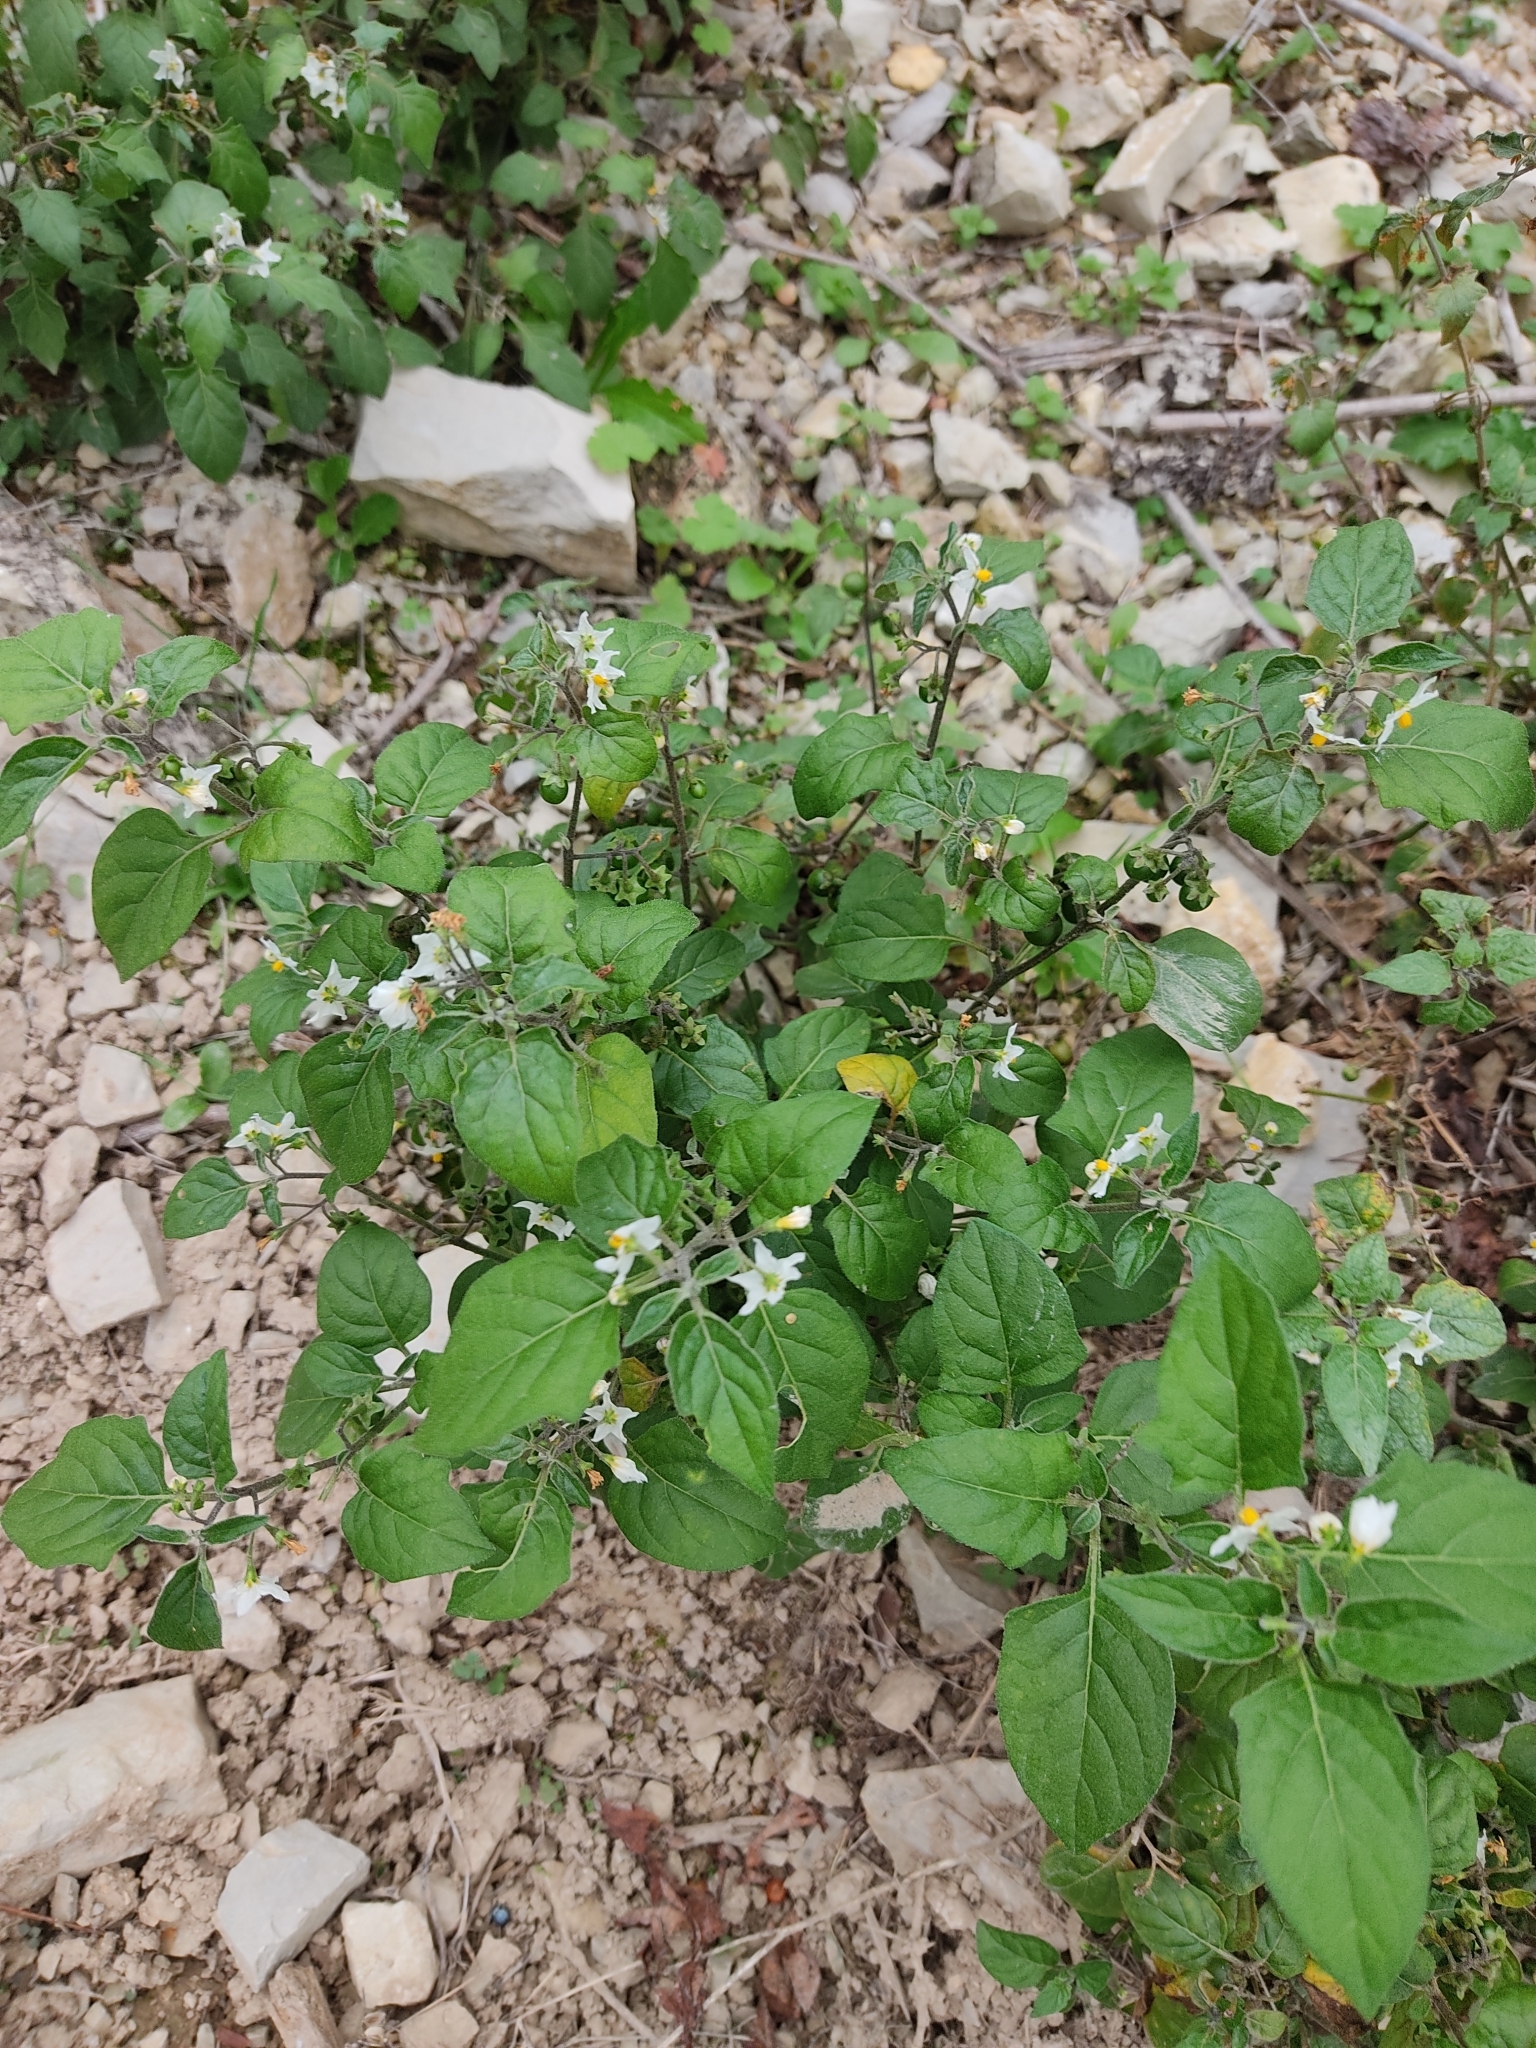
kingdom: Plantae
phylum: Tracheophyta
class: Magnoliopsida
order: Solanales
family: Solanaceae
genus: Solanum
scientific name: Solanum nigrum
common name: Black nightshade
